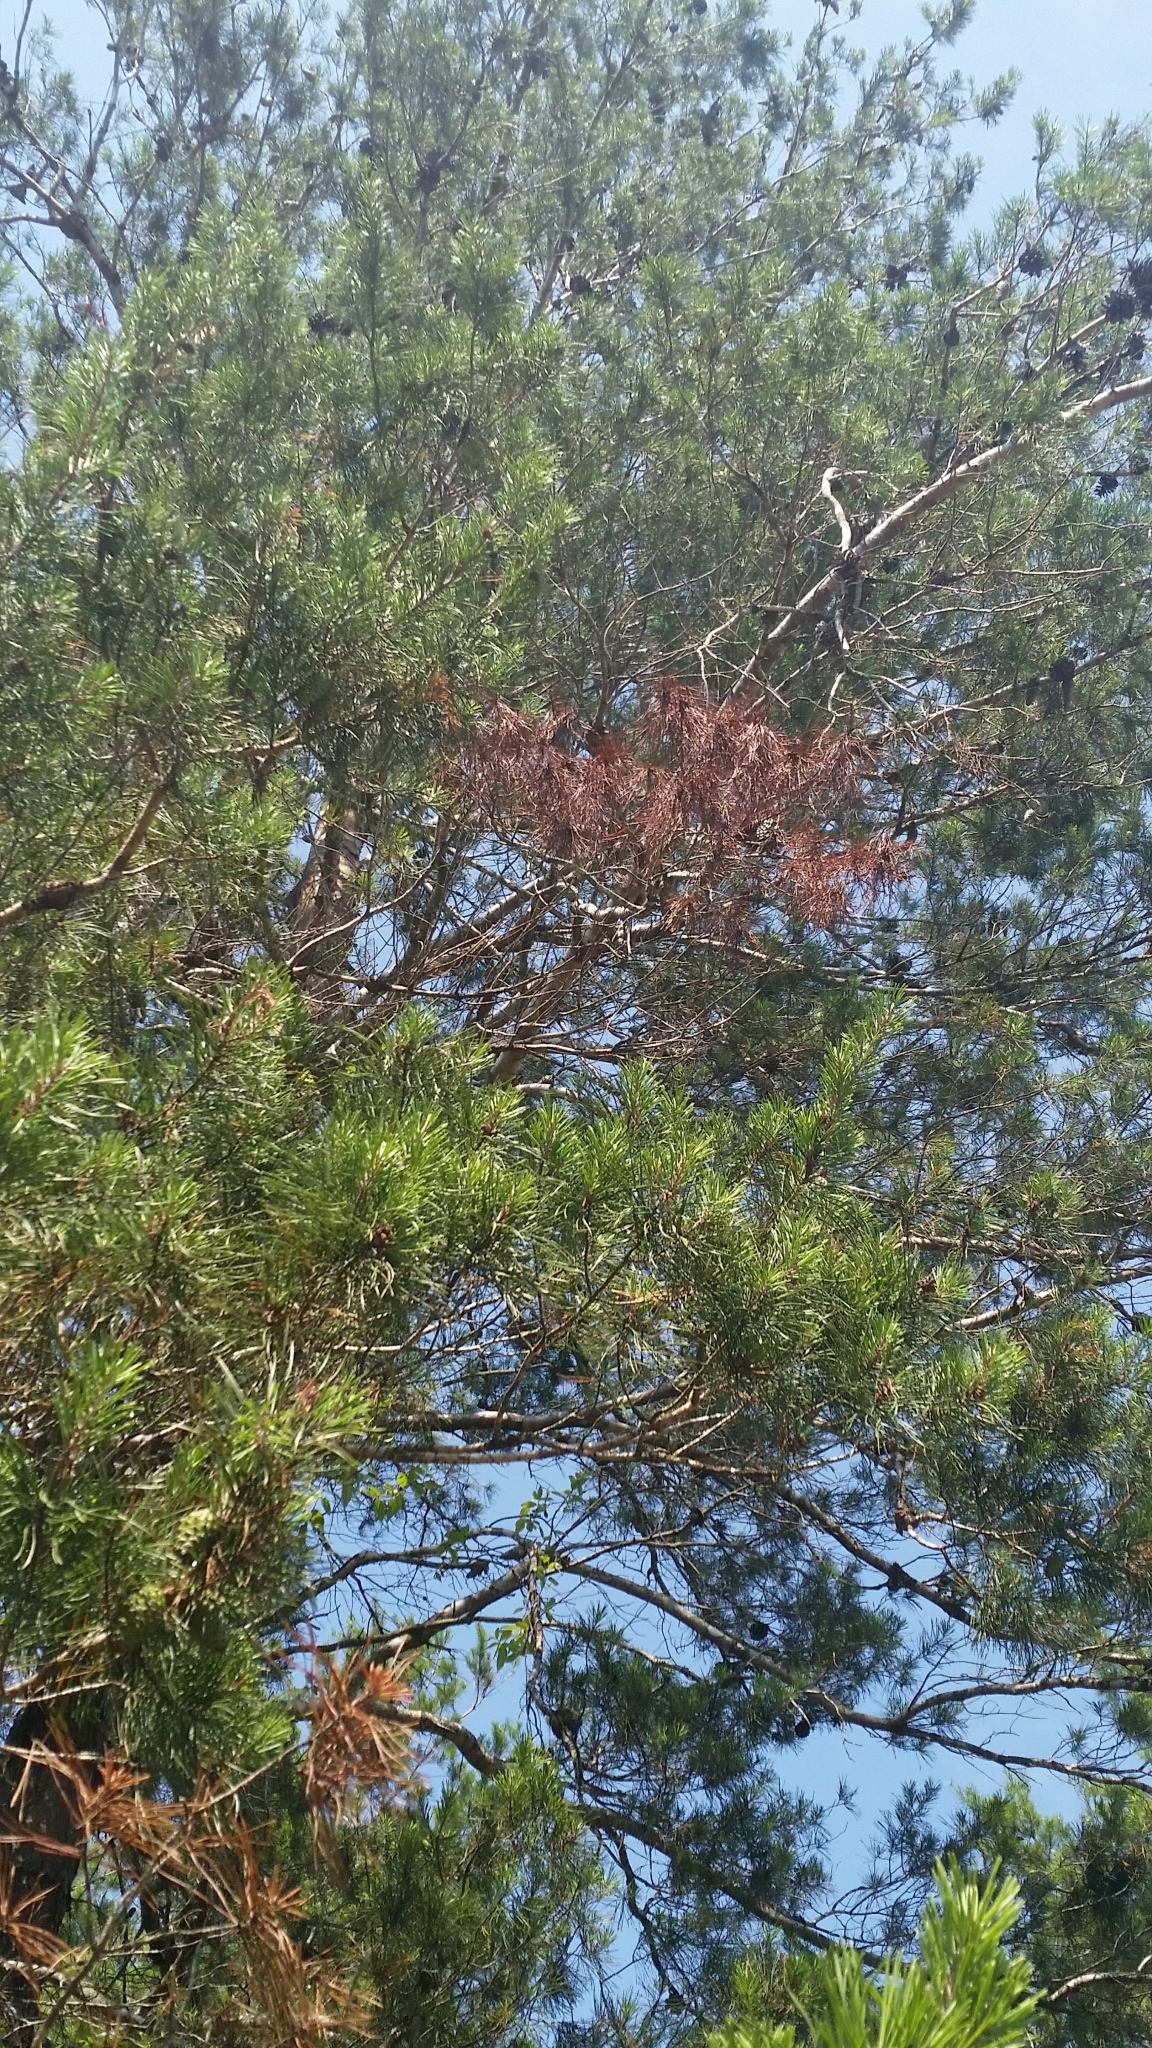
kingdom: Plantae
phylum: Tracheophyta
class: Pinopsida
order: Pinales
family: Pinaceae
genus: Pinus
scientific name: Pinus clausa
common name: Sand pine
